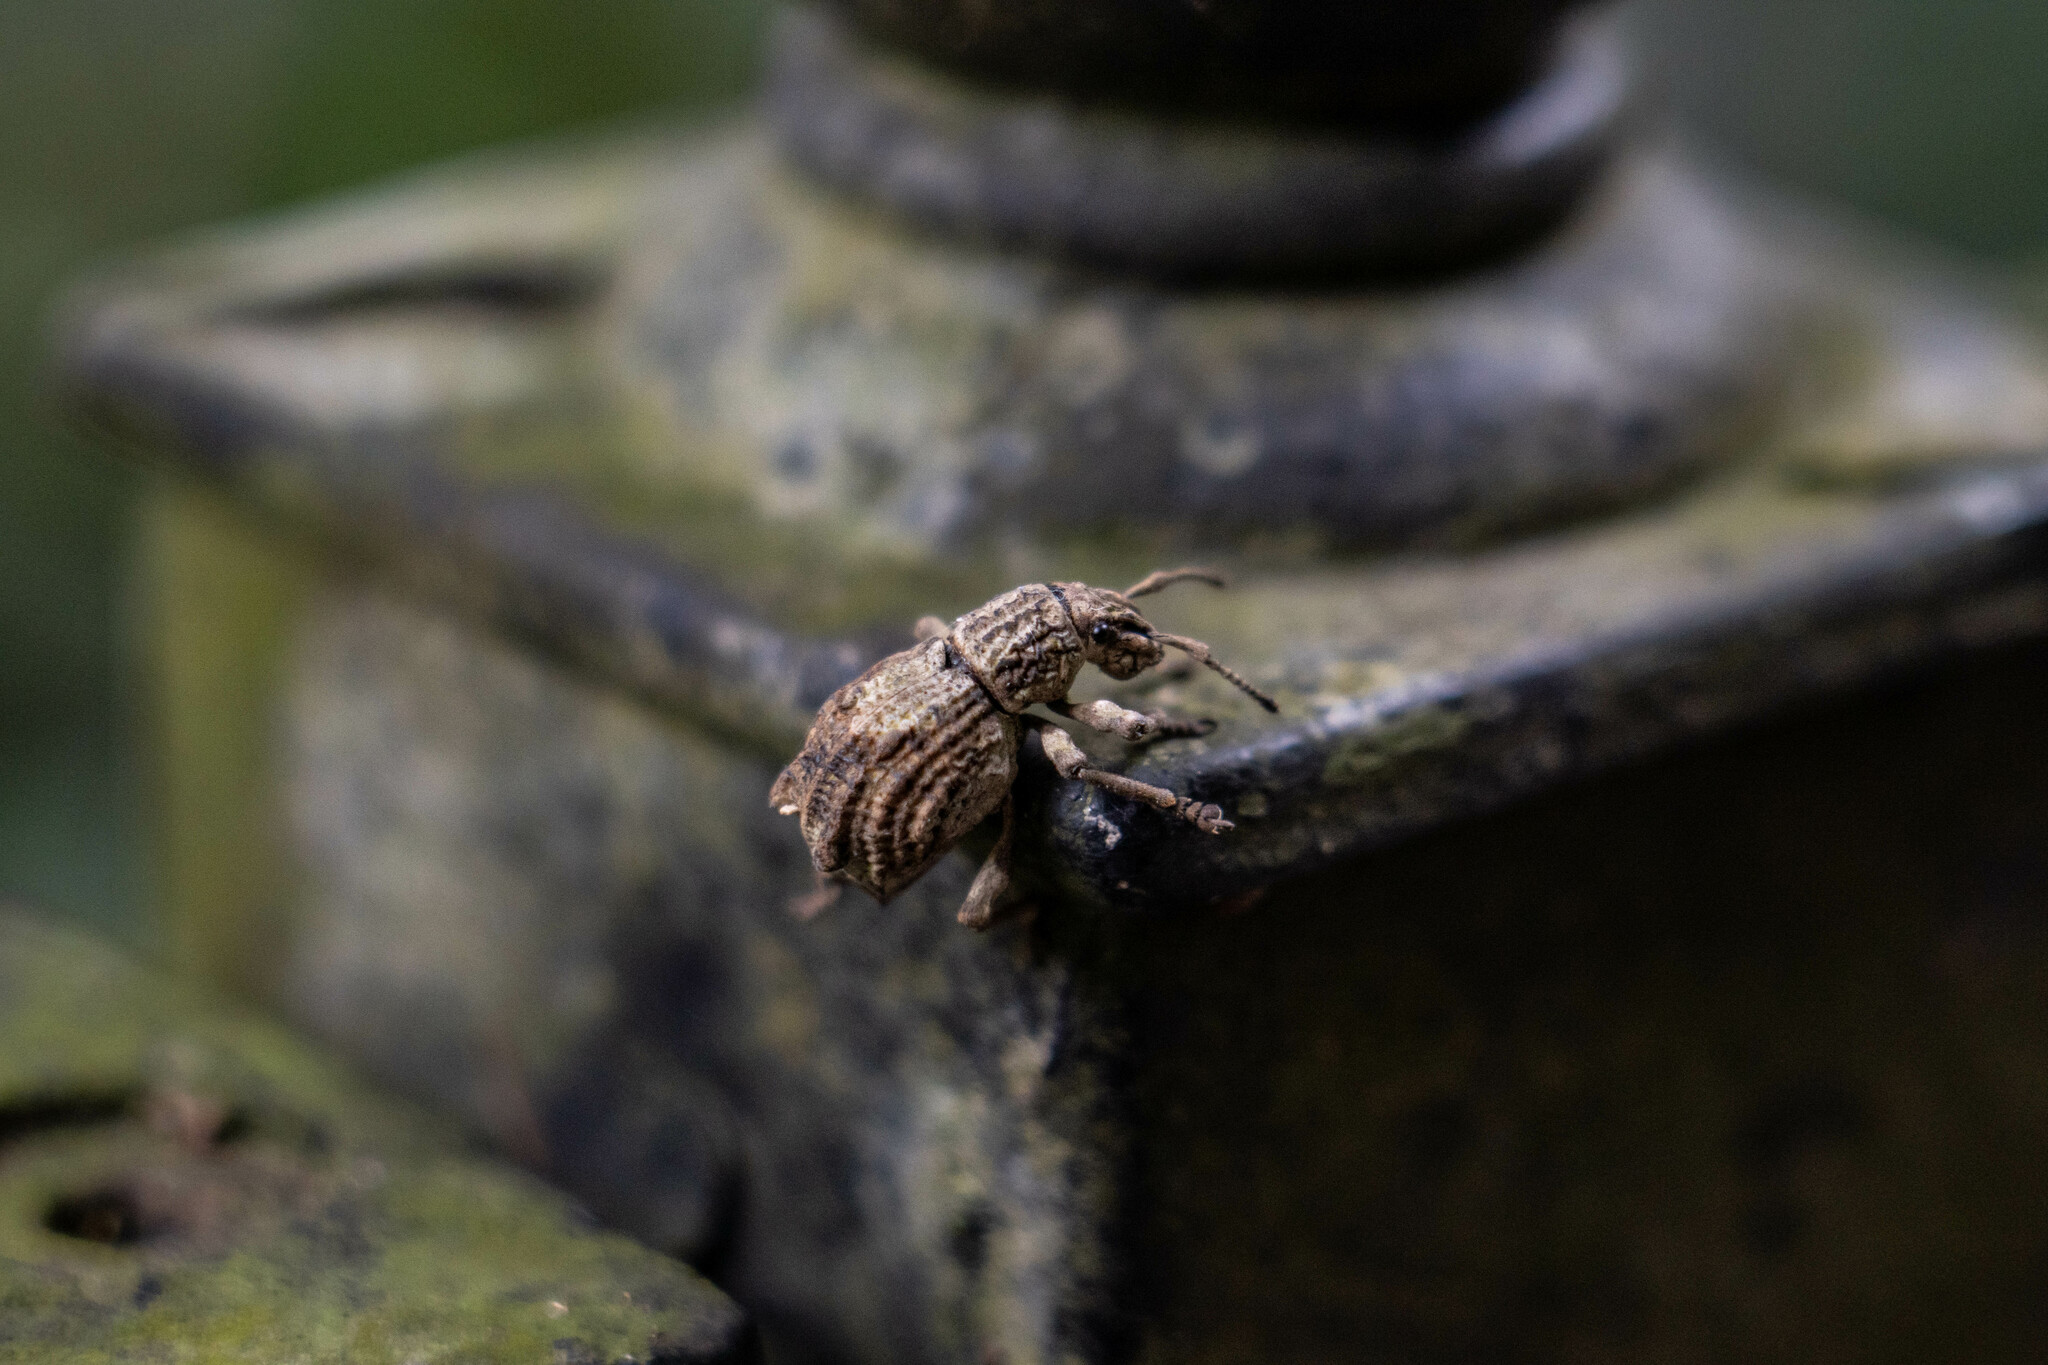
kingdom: Animalia
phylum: Arthropoda
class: Insecta
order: Coleoptera
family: Curculionidae
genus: Episomus
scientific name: Episomus
